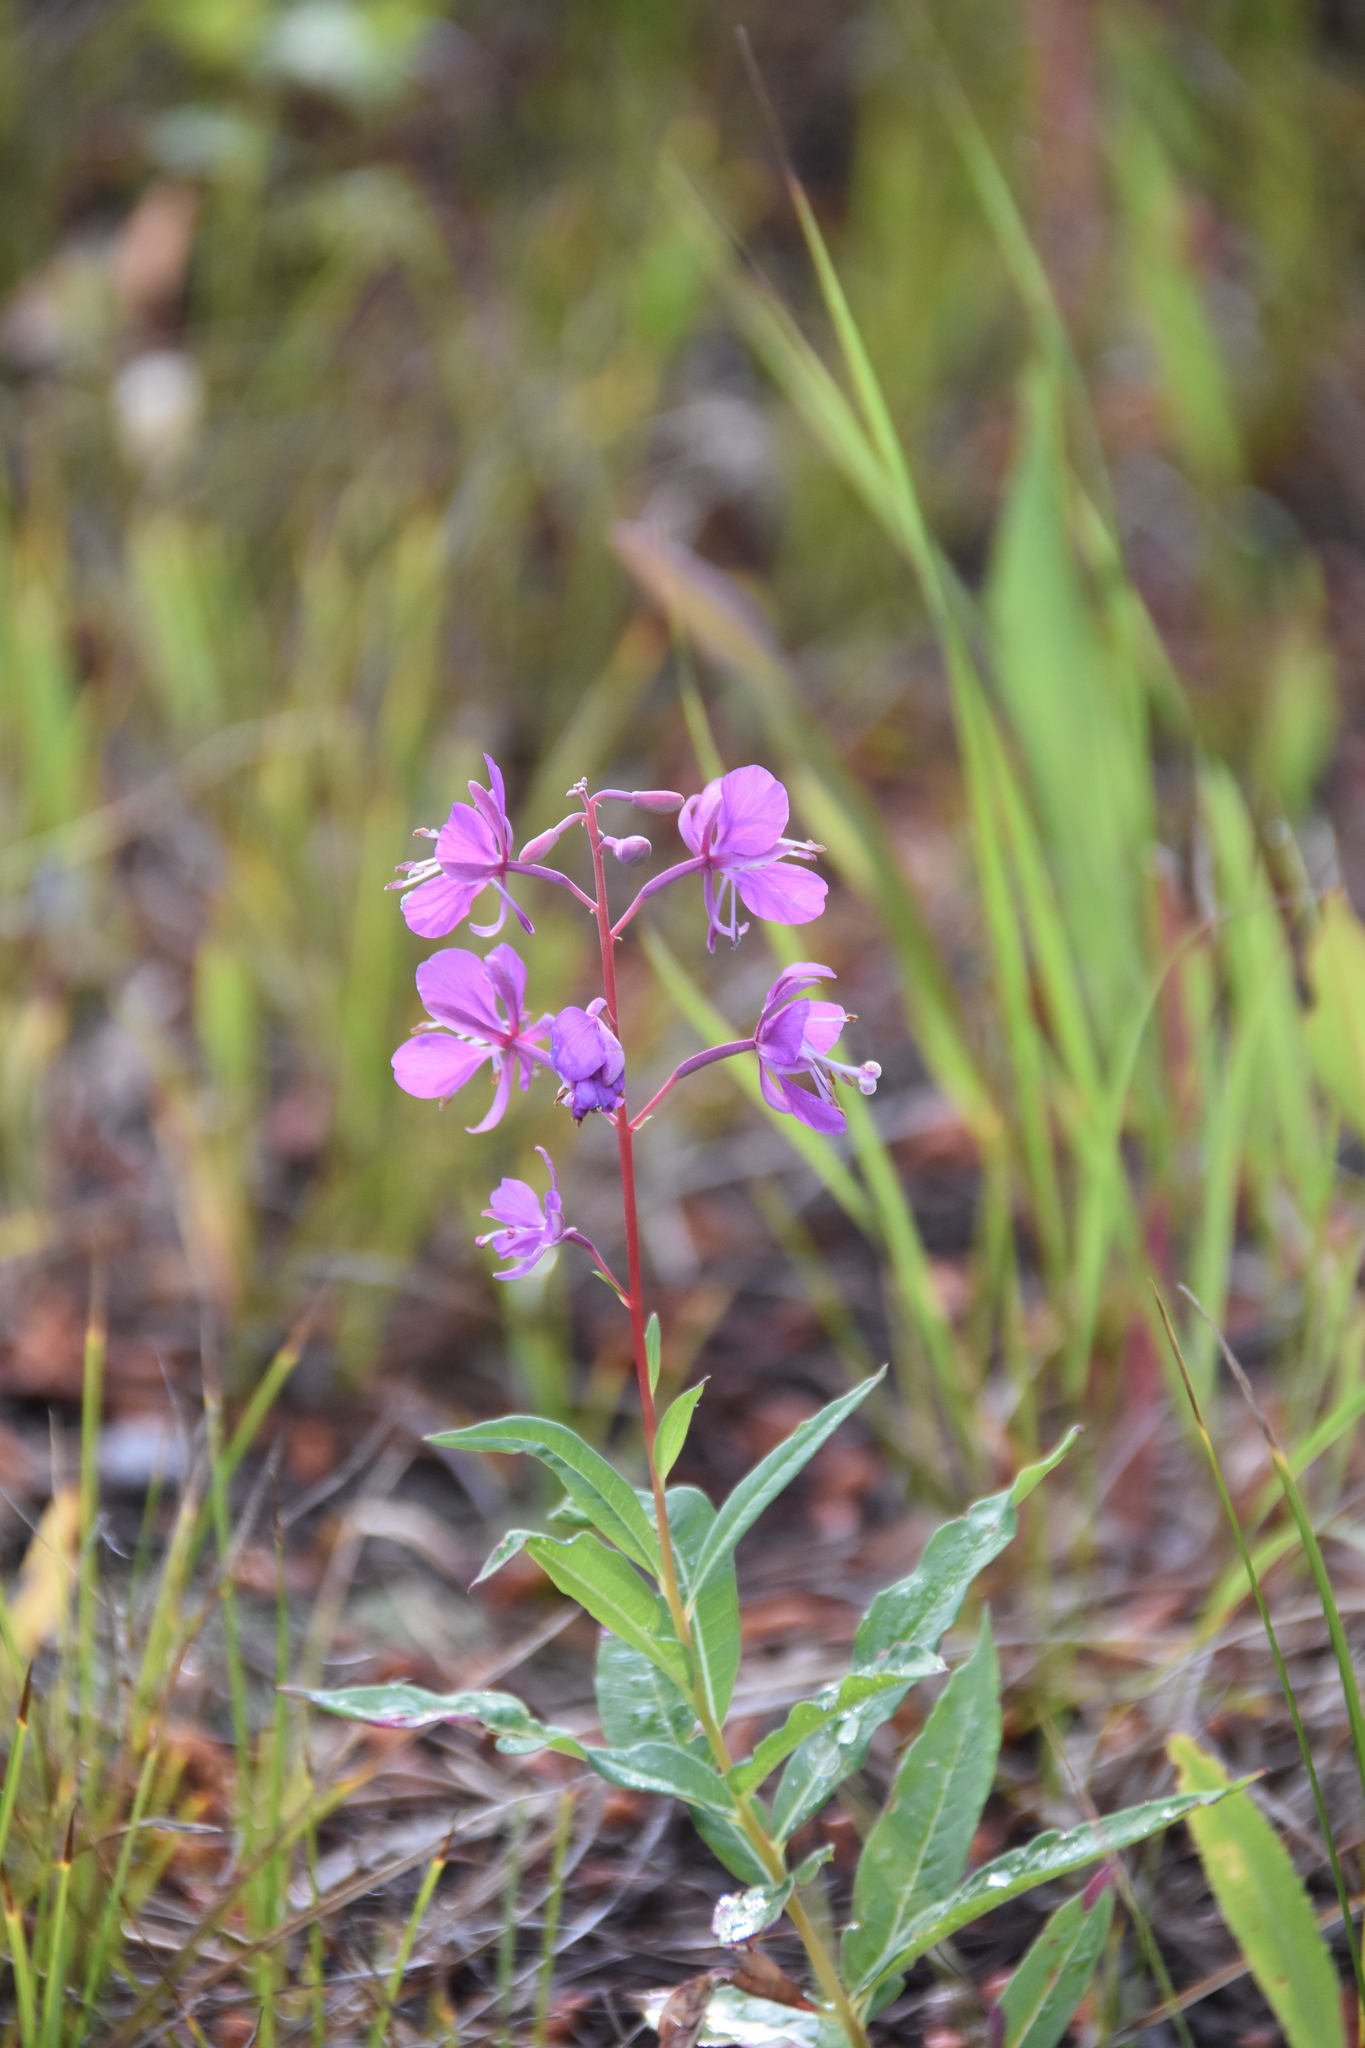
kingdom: Plantae
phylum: Tracheophyta
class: Magnoliopsida
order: Myrtales
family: Onagraceae
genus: Chamaenerion
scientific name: Chamaenerion angustifolium
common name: Fireweed
